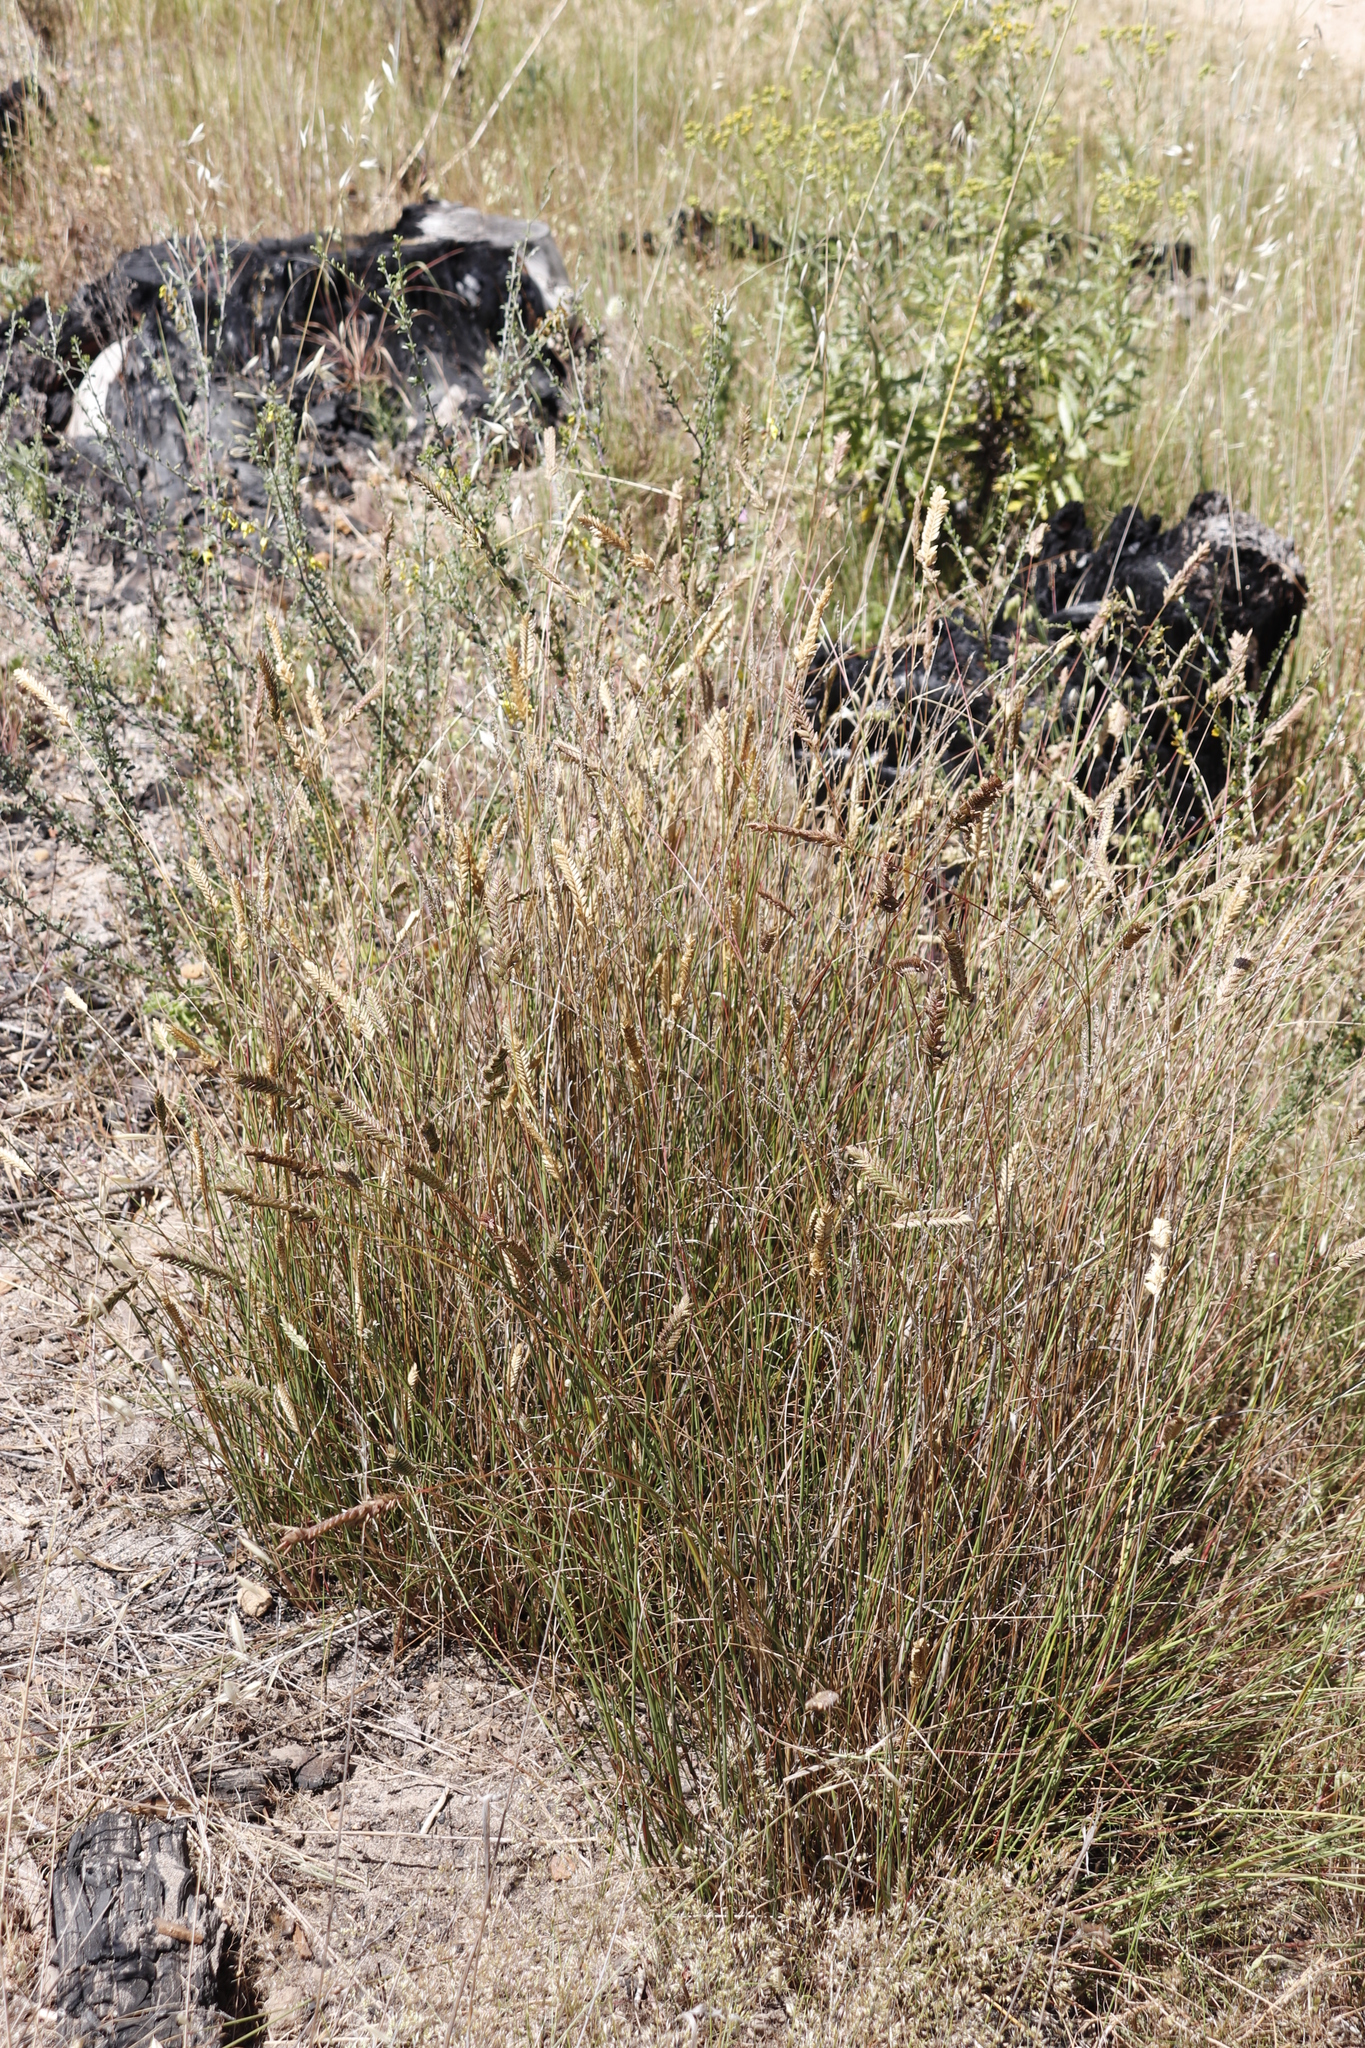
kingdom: Plantae
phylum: Tracheophyta
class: Liliopsida
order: Poales
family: Poaceae
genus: Tribolium
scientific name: Tribolium uniolae
